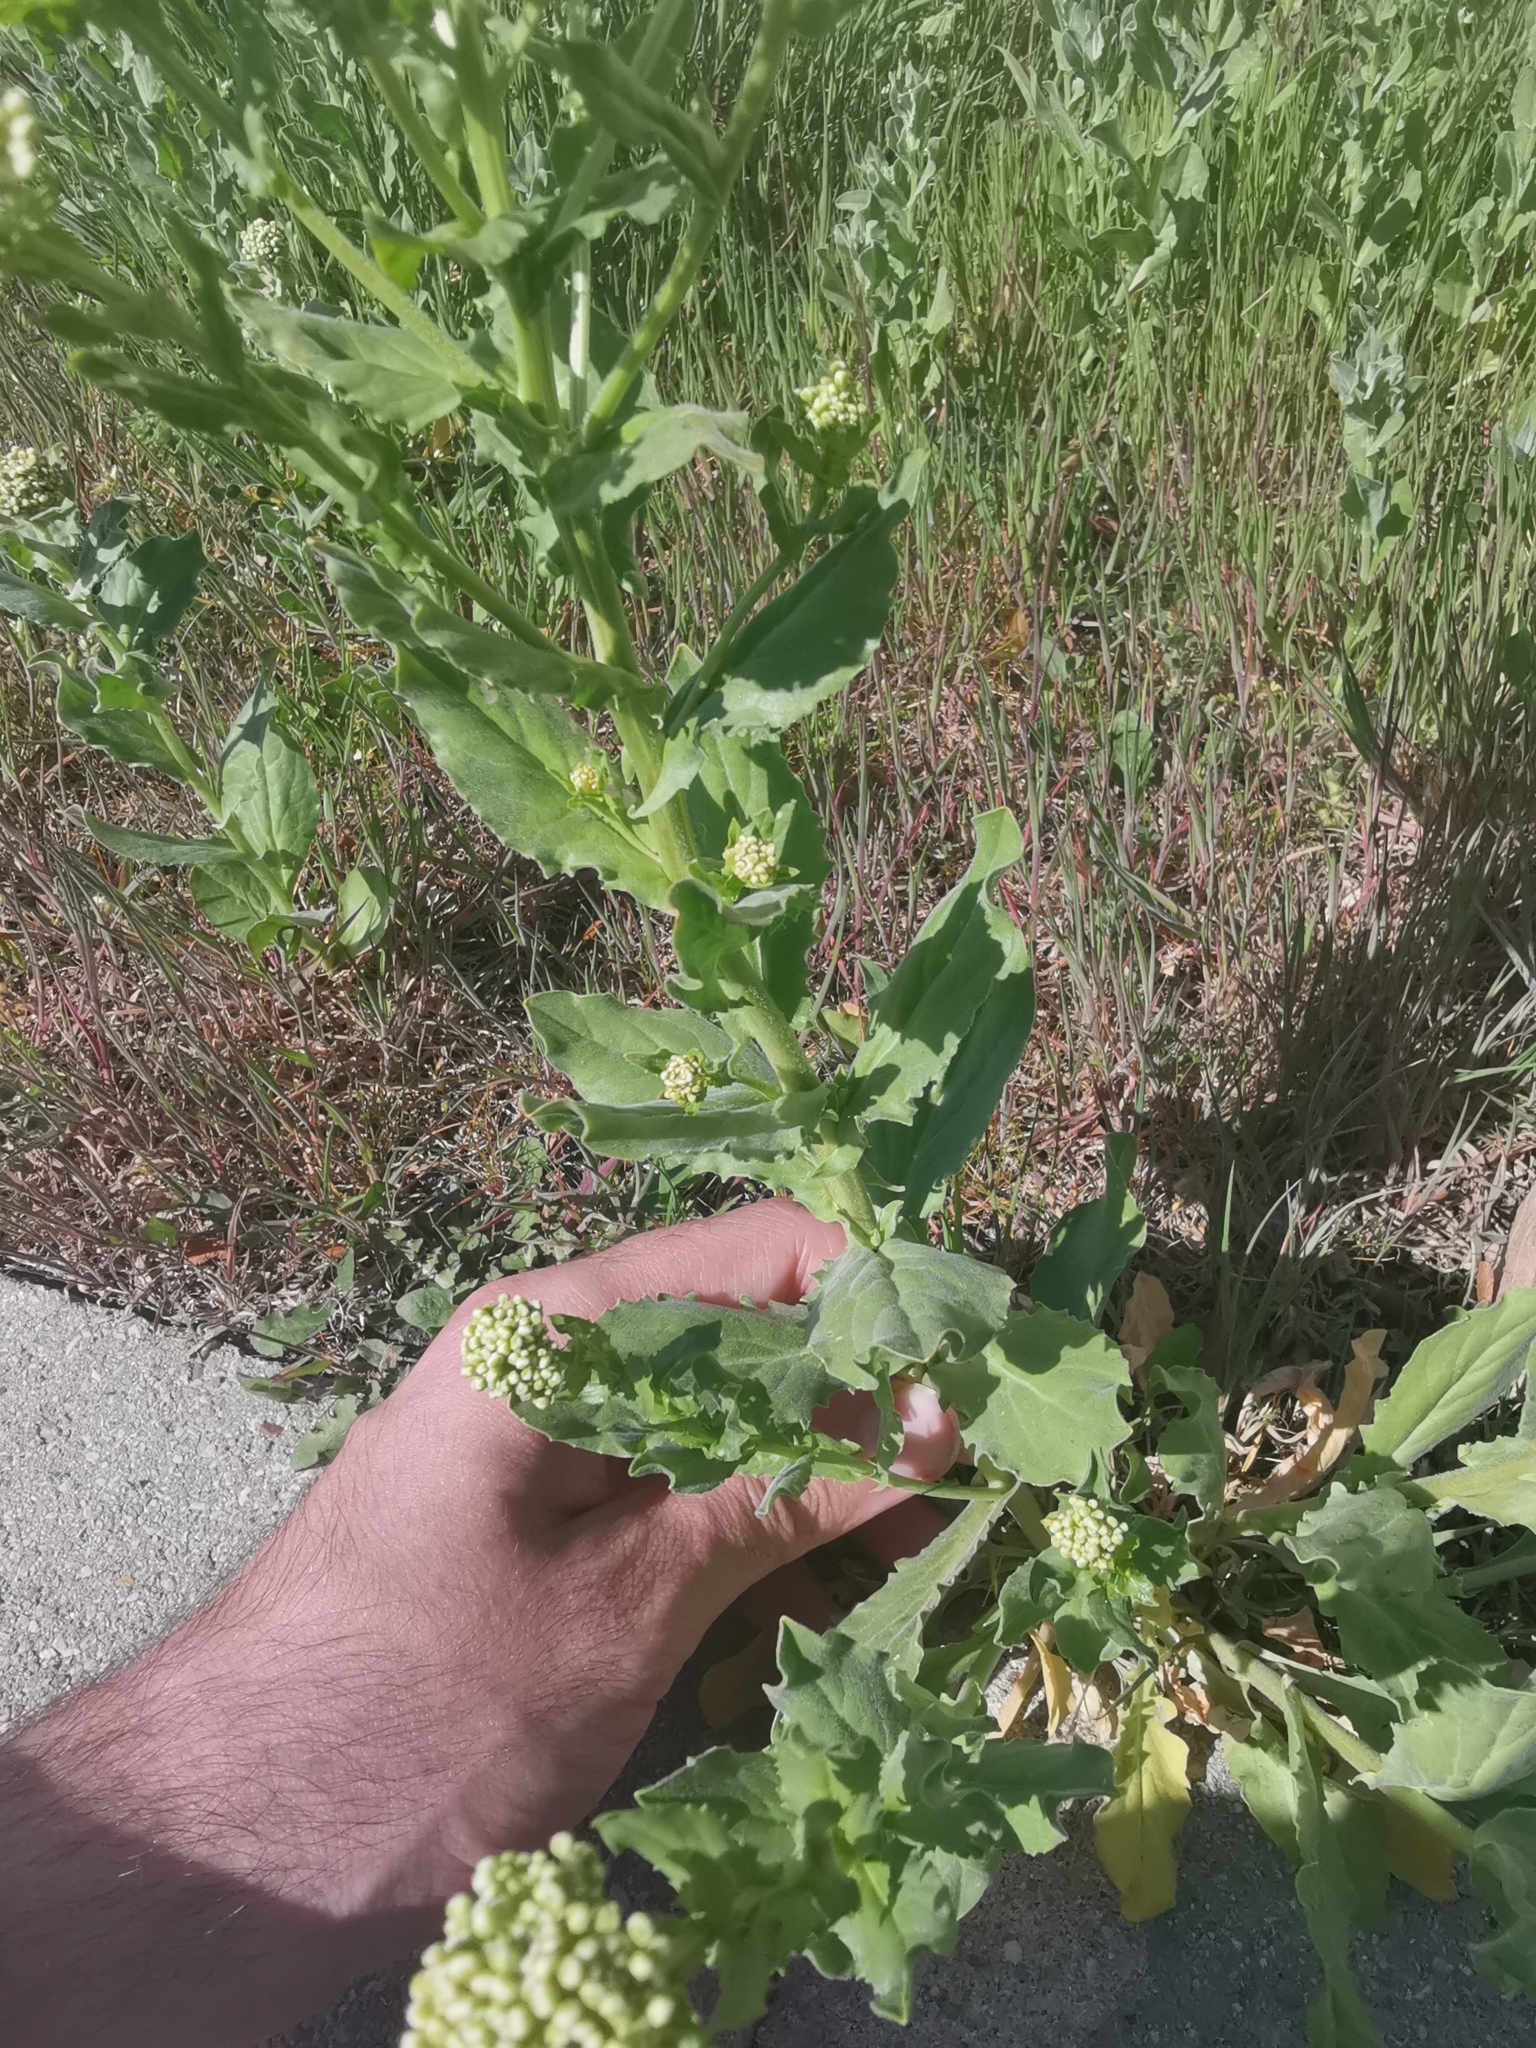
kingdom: Plantae
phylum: Tracheophyta
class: Magnoliopsida
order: Brassicales
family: Brassicaceae
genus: Lepidium
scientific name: Lepidium draba
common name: Hoary cress
